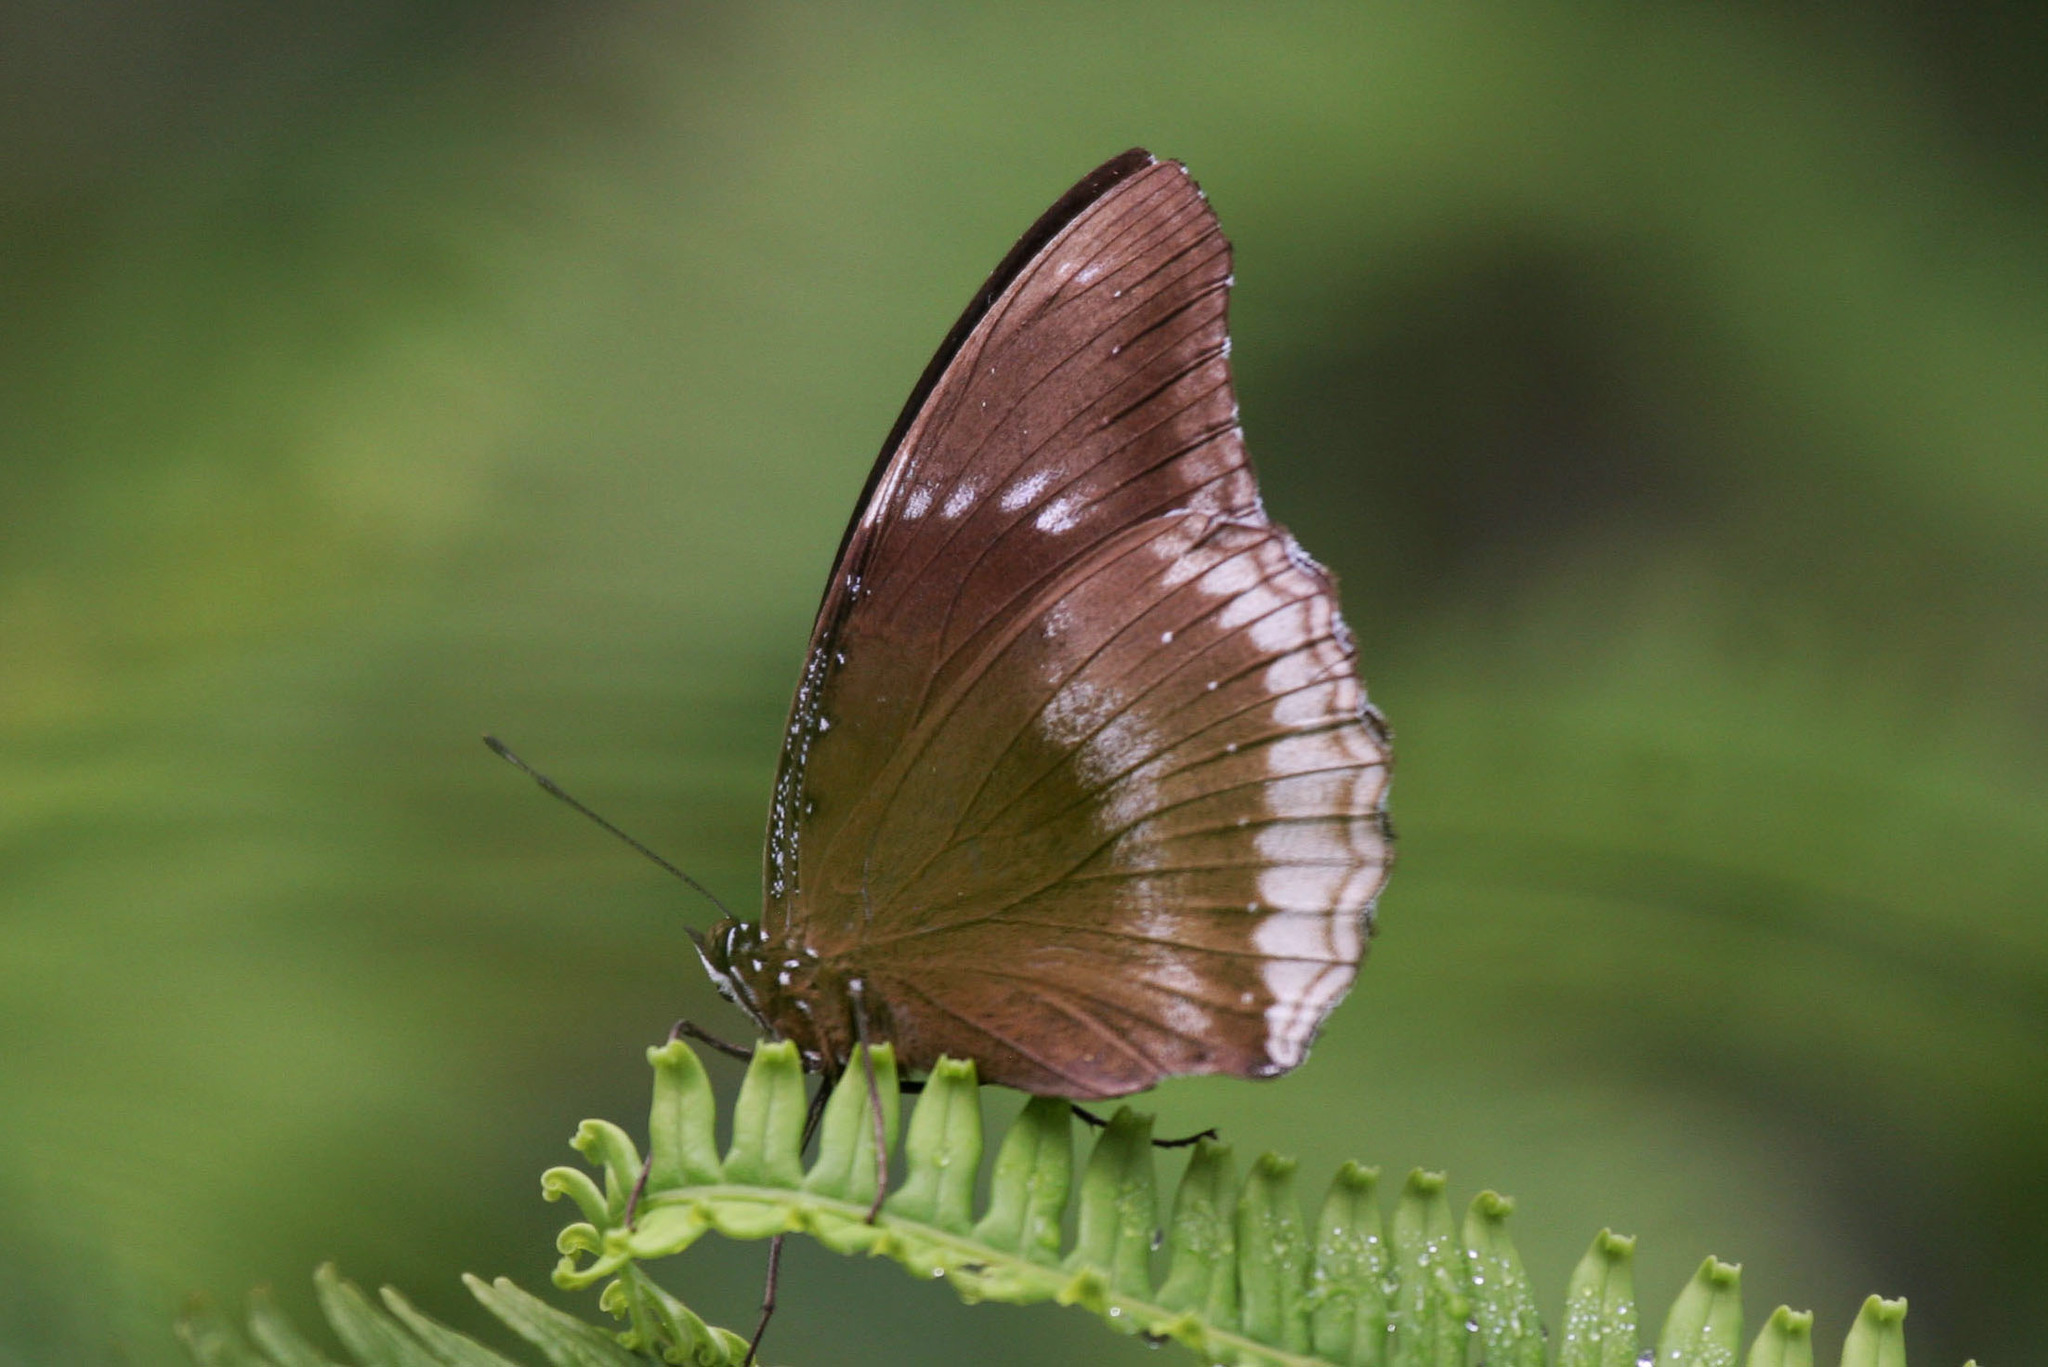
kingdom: Animalia
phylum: Arthropoda
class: Insecta
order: Lepidoptera
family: Nymphalidae
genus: Hypolimnas
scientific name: Hypolimnas bolina
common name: Great eggfly
